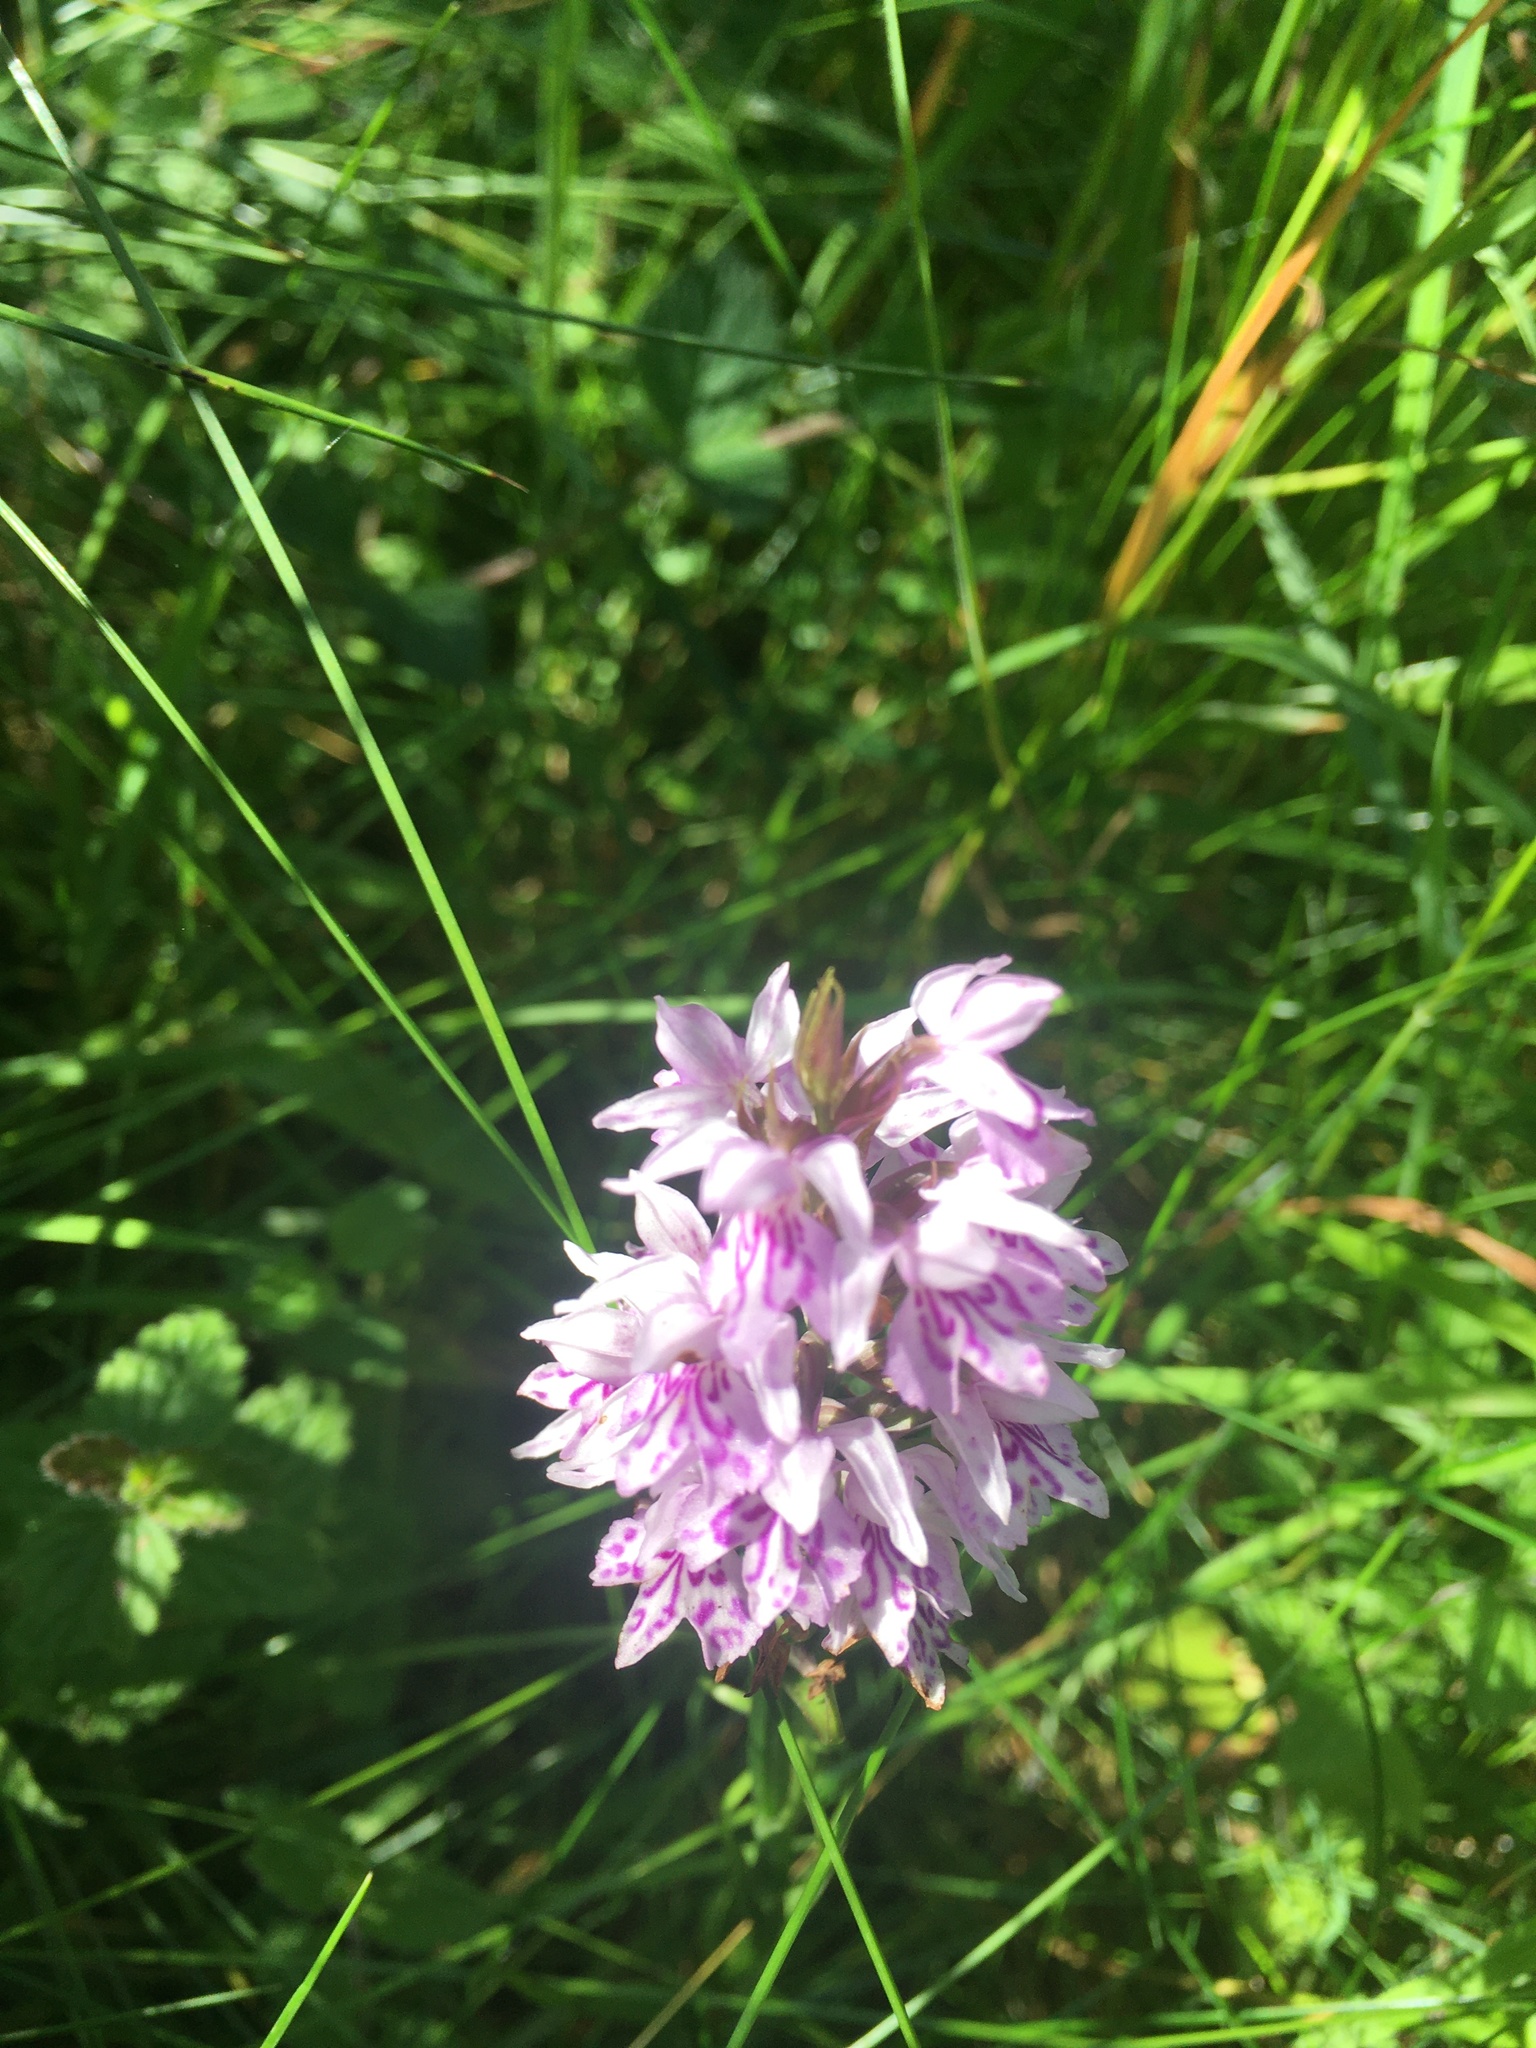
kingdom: Plantae
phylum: Tracheophyta
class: Liliopsida
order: Asparagales
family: Orchidaceae
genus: Dactylorhiza
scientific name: Dactylorhiza maculata
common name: Heath spotted-orchid
